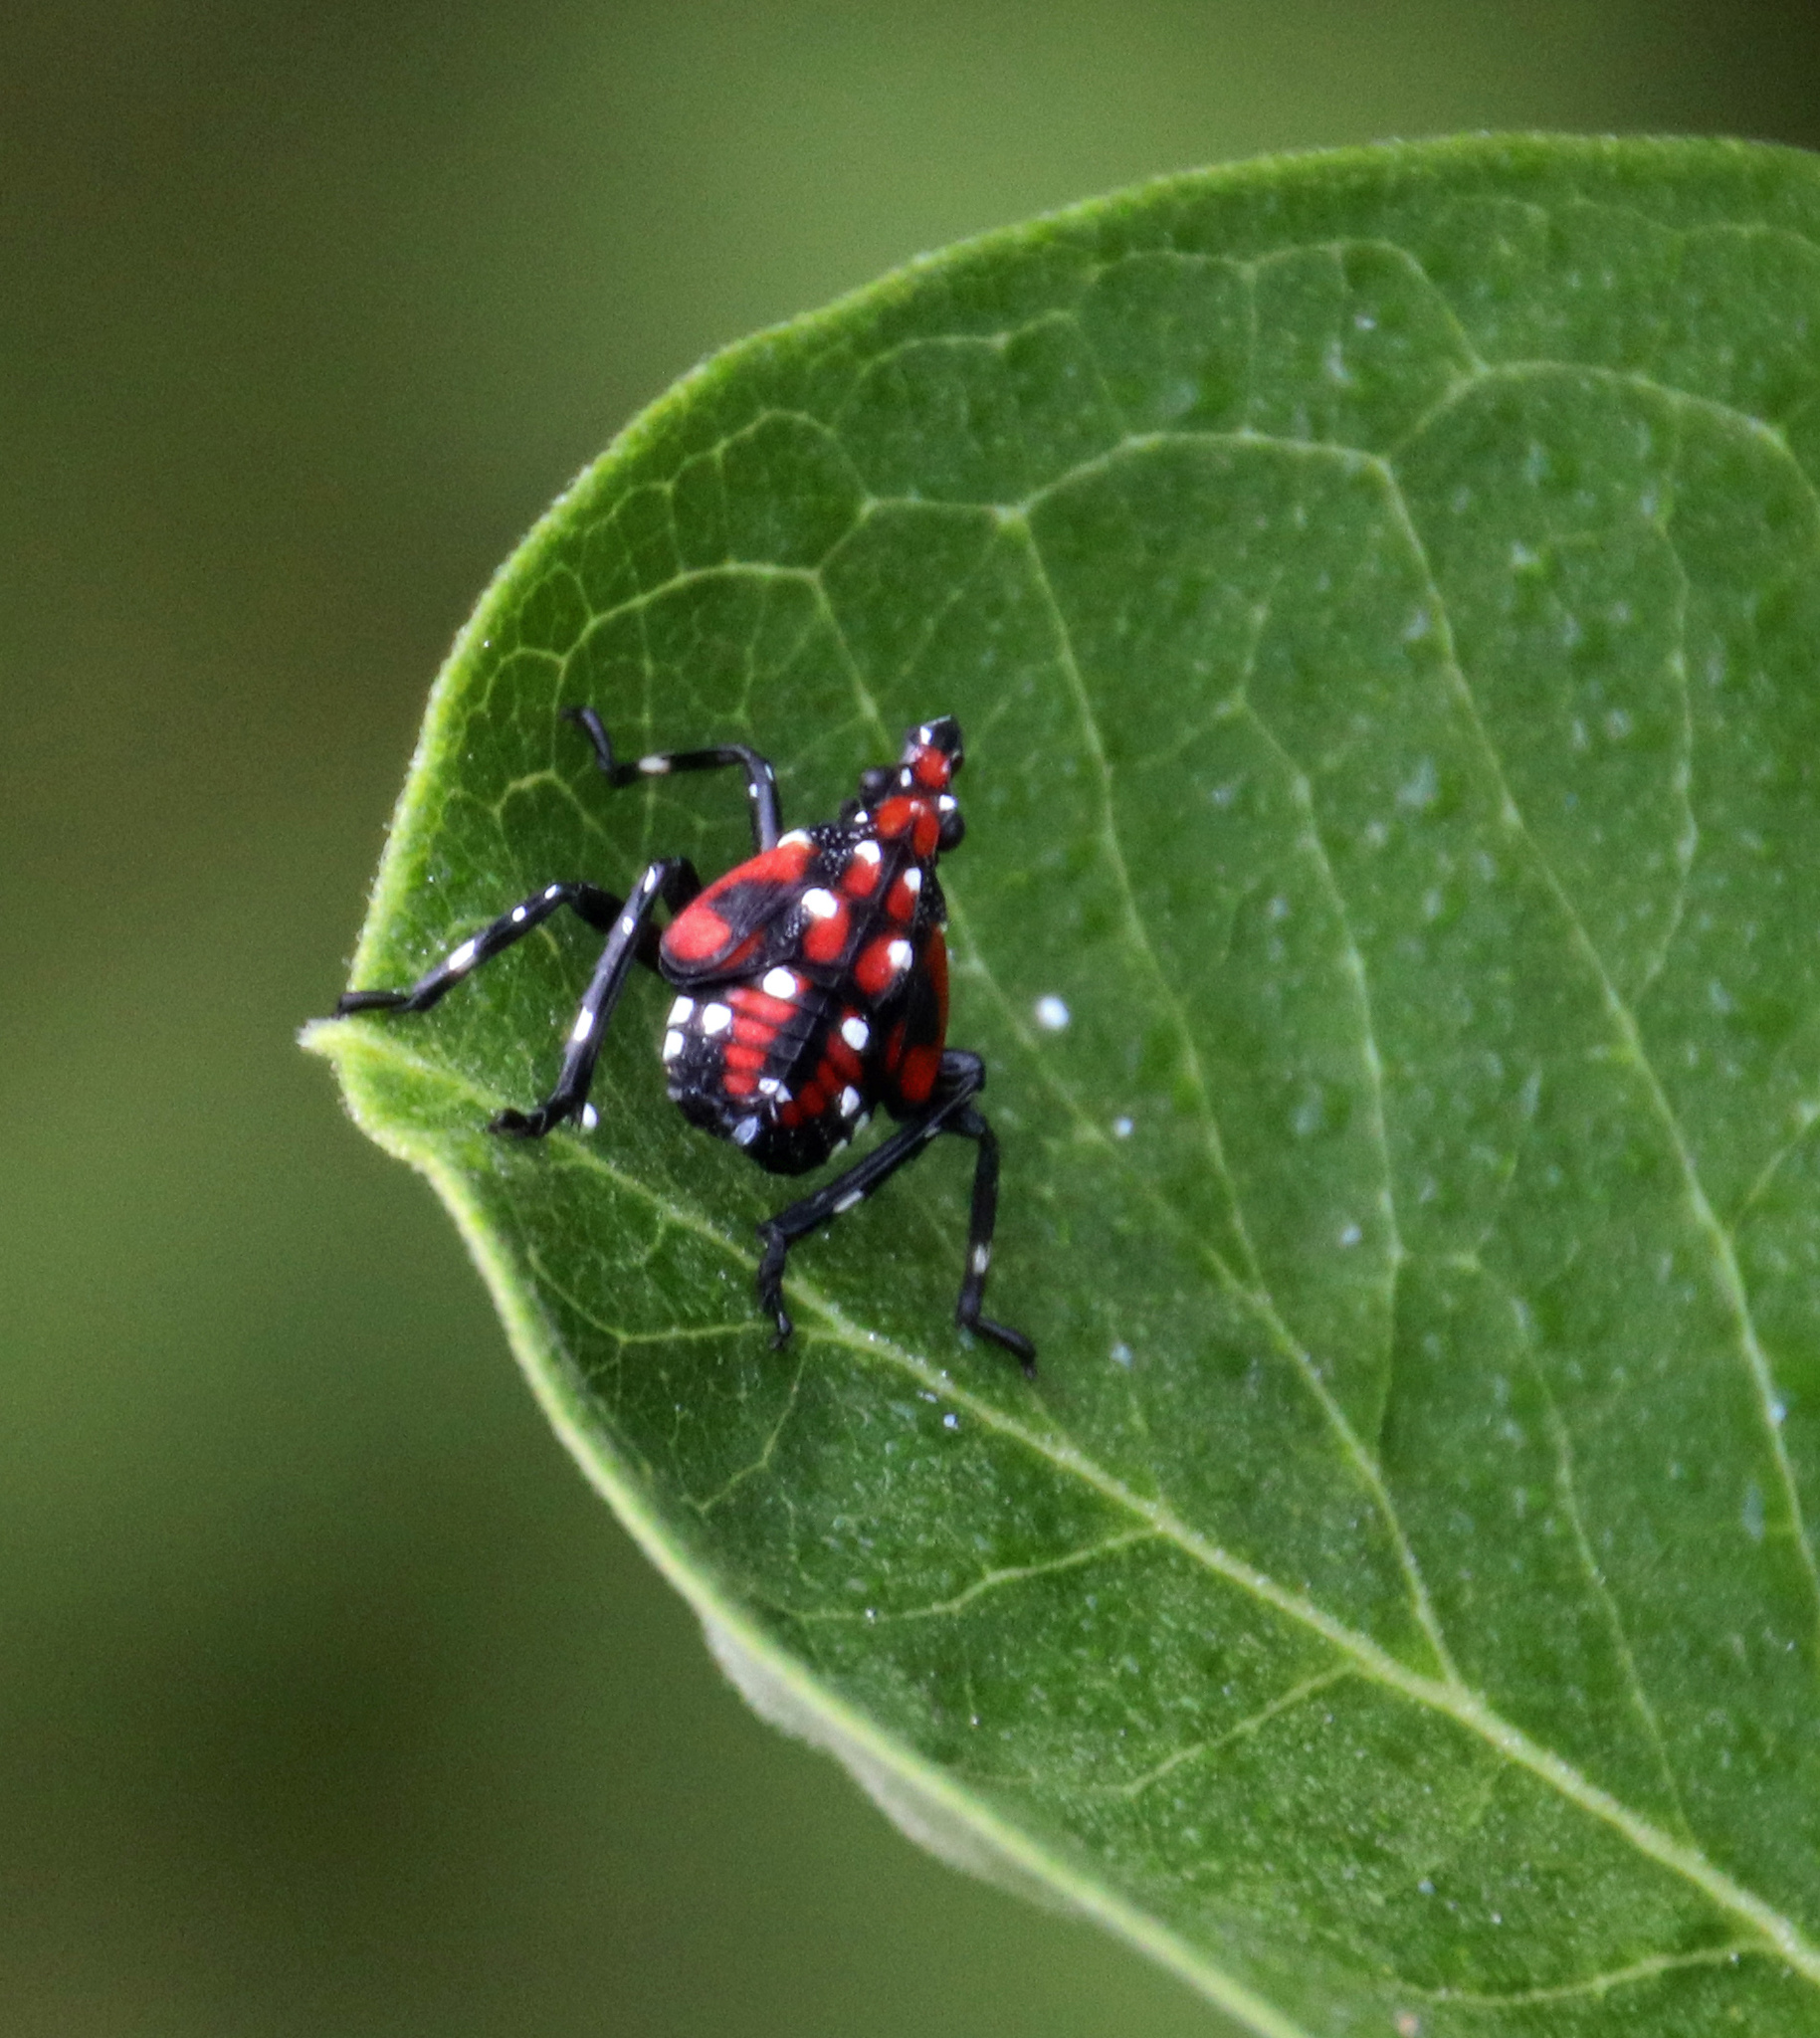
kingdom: Animalia
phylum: Arthropoda
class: Insecta
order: Hemiptera
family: Fulgoridae
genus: Lycorma
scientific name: Lycorma delicatula
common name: Spotted lanternfly
